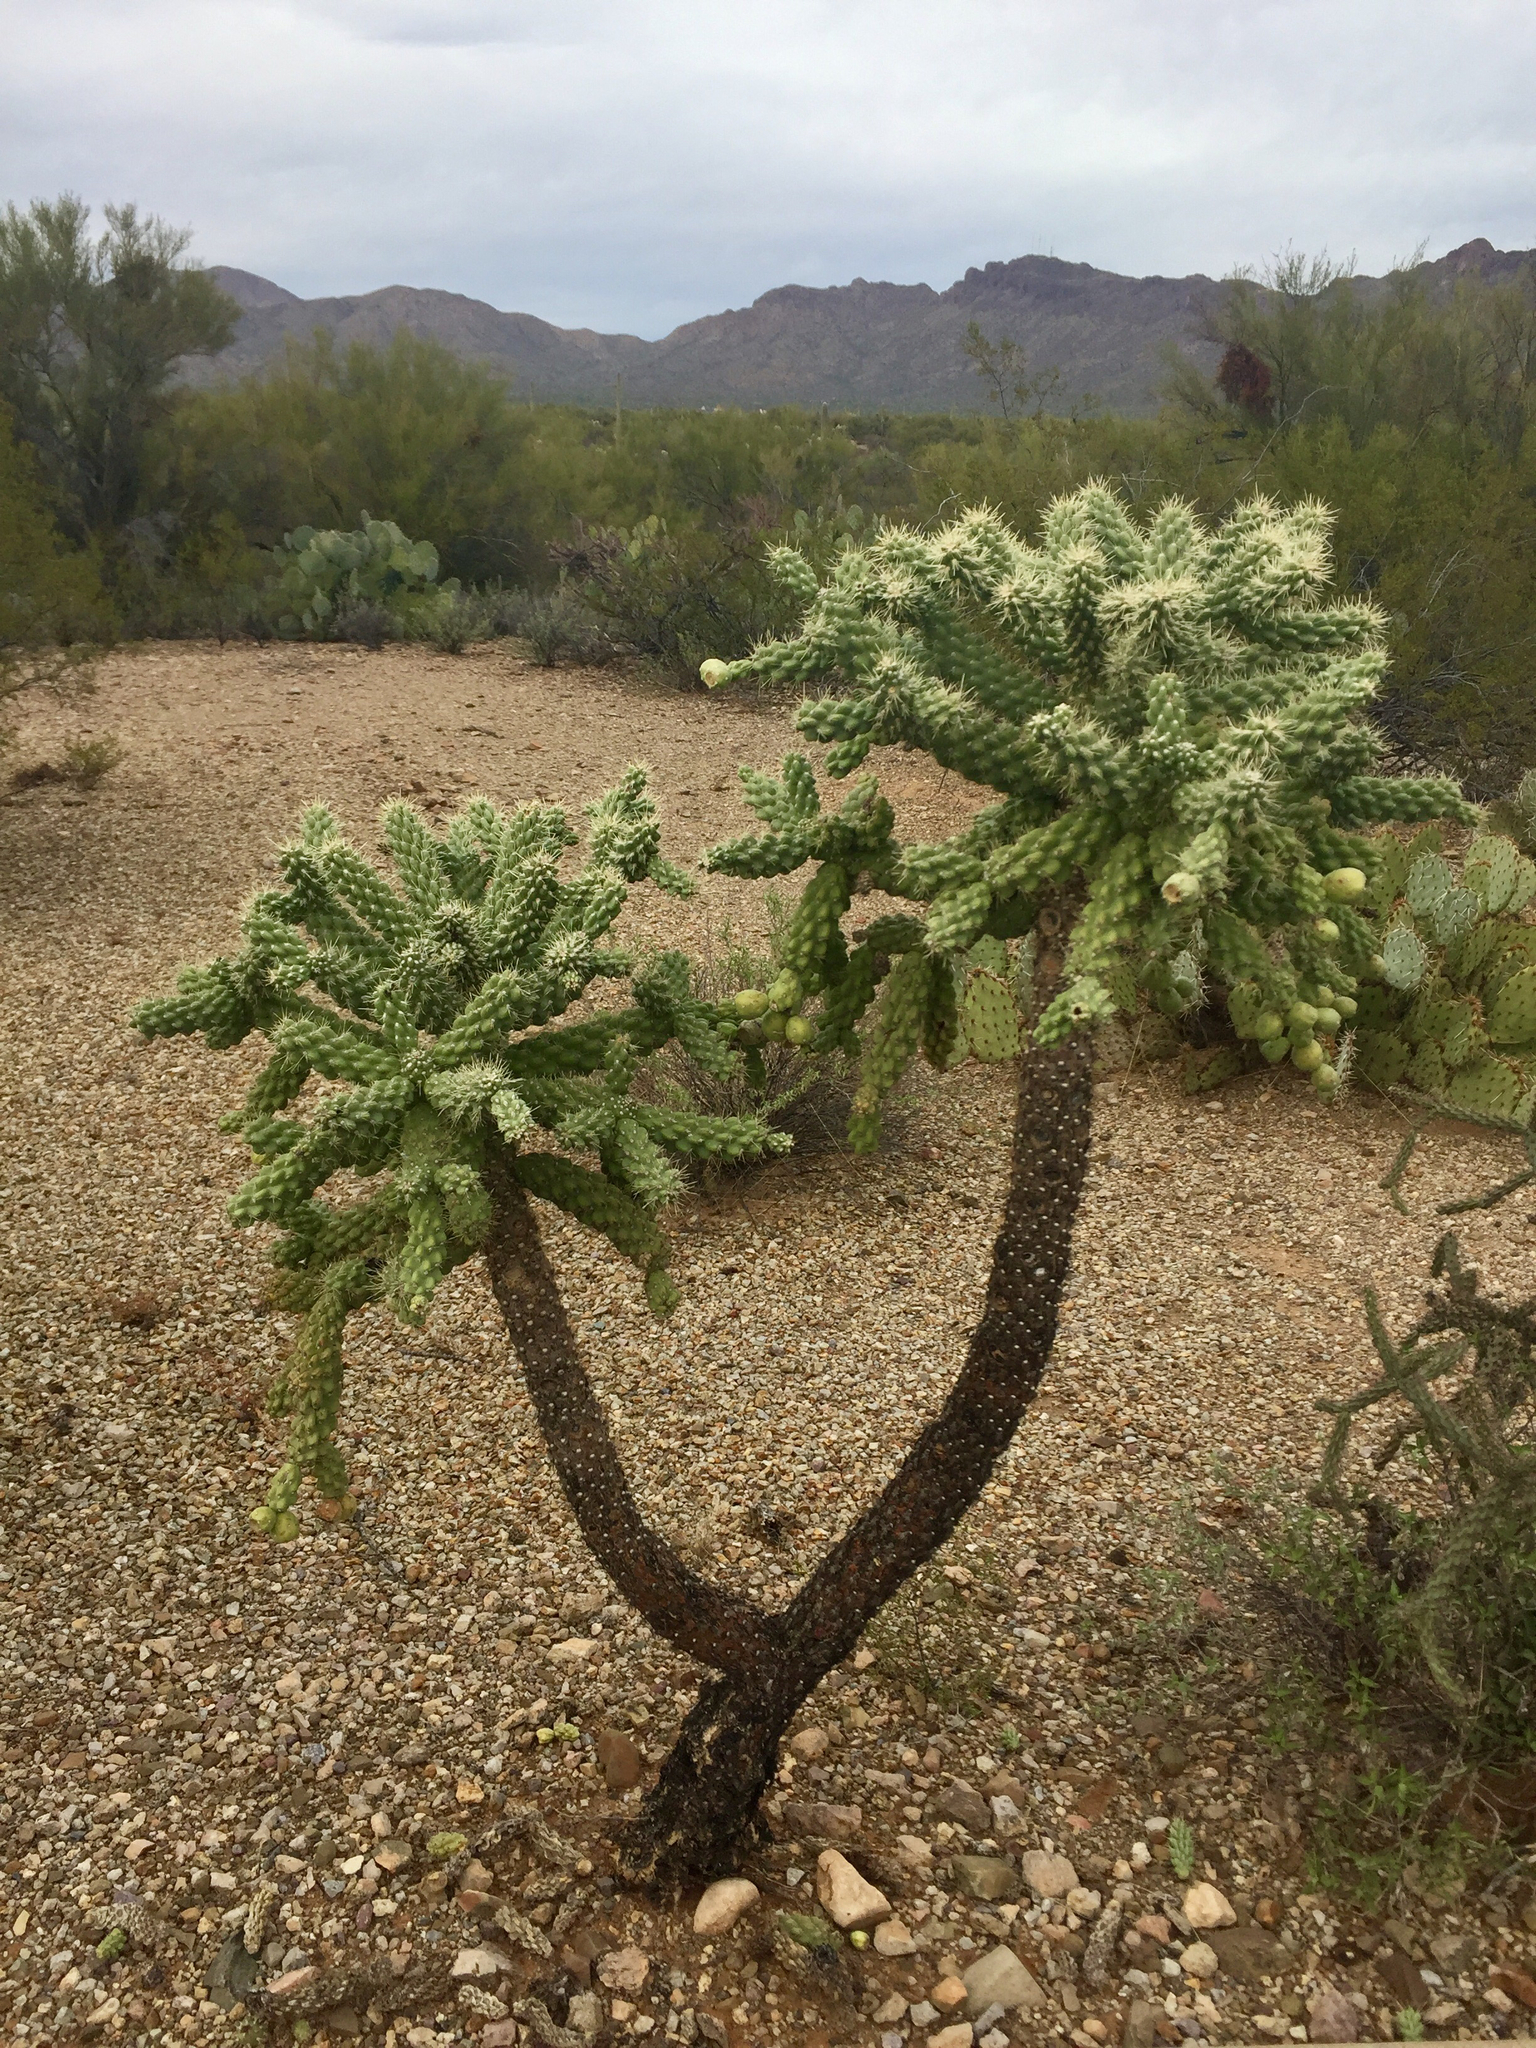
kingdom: Plantae
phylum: Tracheophyta
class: Magnoliopsida
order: Caryophyllales
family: Cactaceae
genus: Cylindropuntia
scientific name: Cylindropuntia fulgida
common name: Jumping cholla
